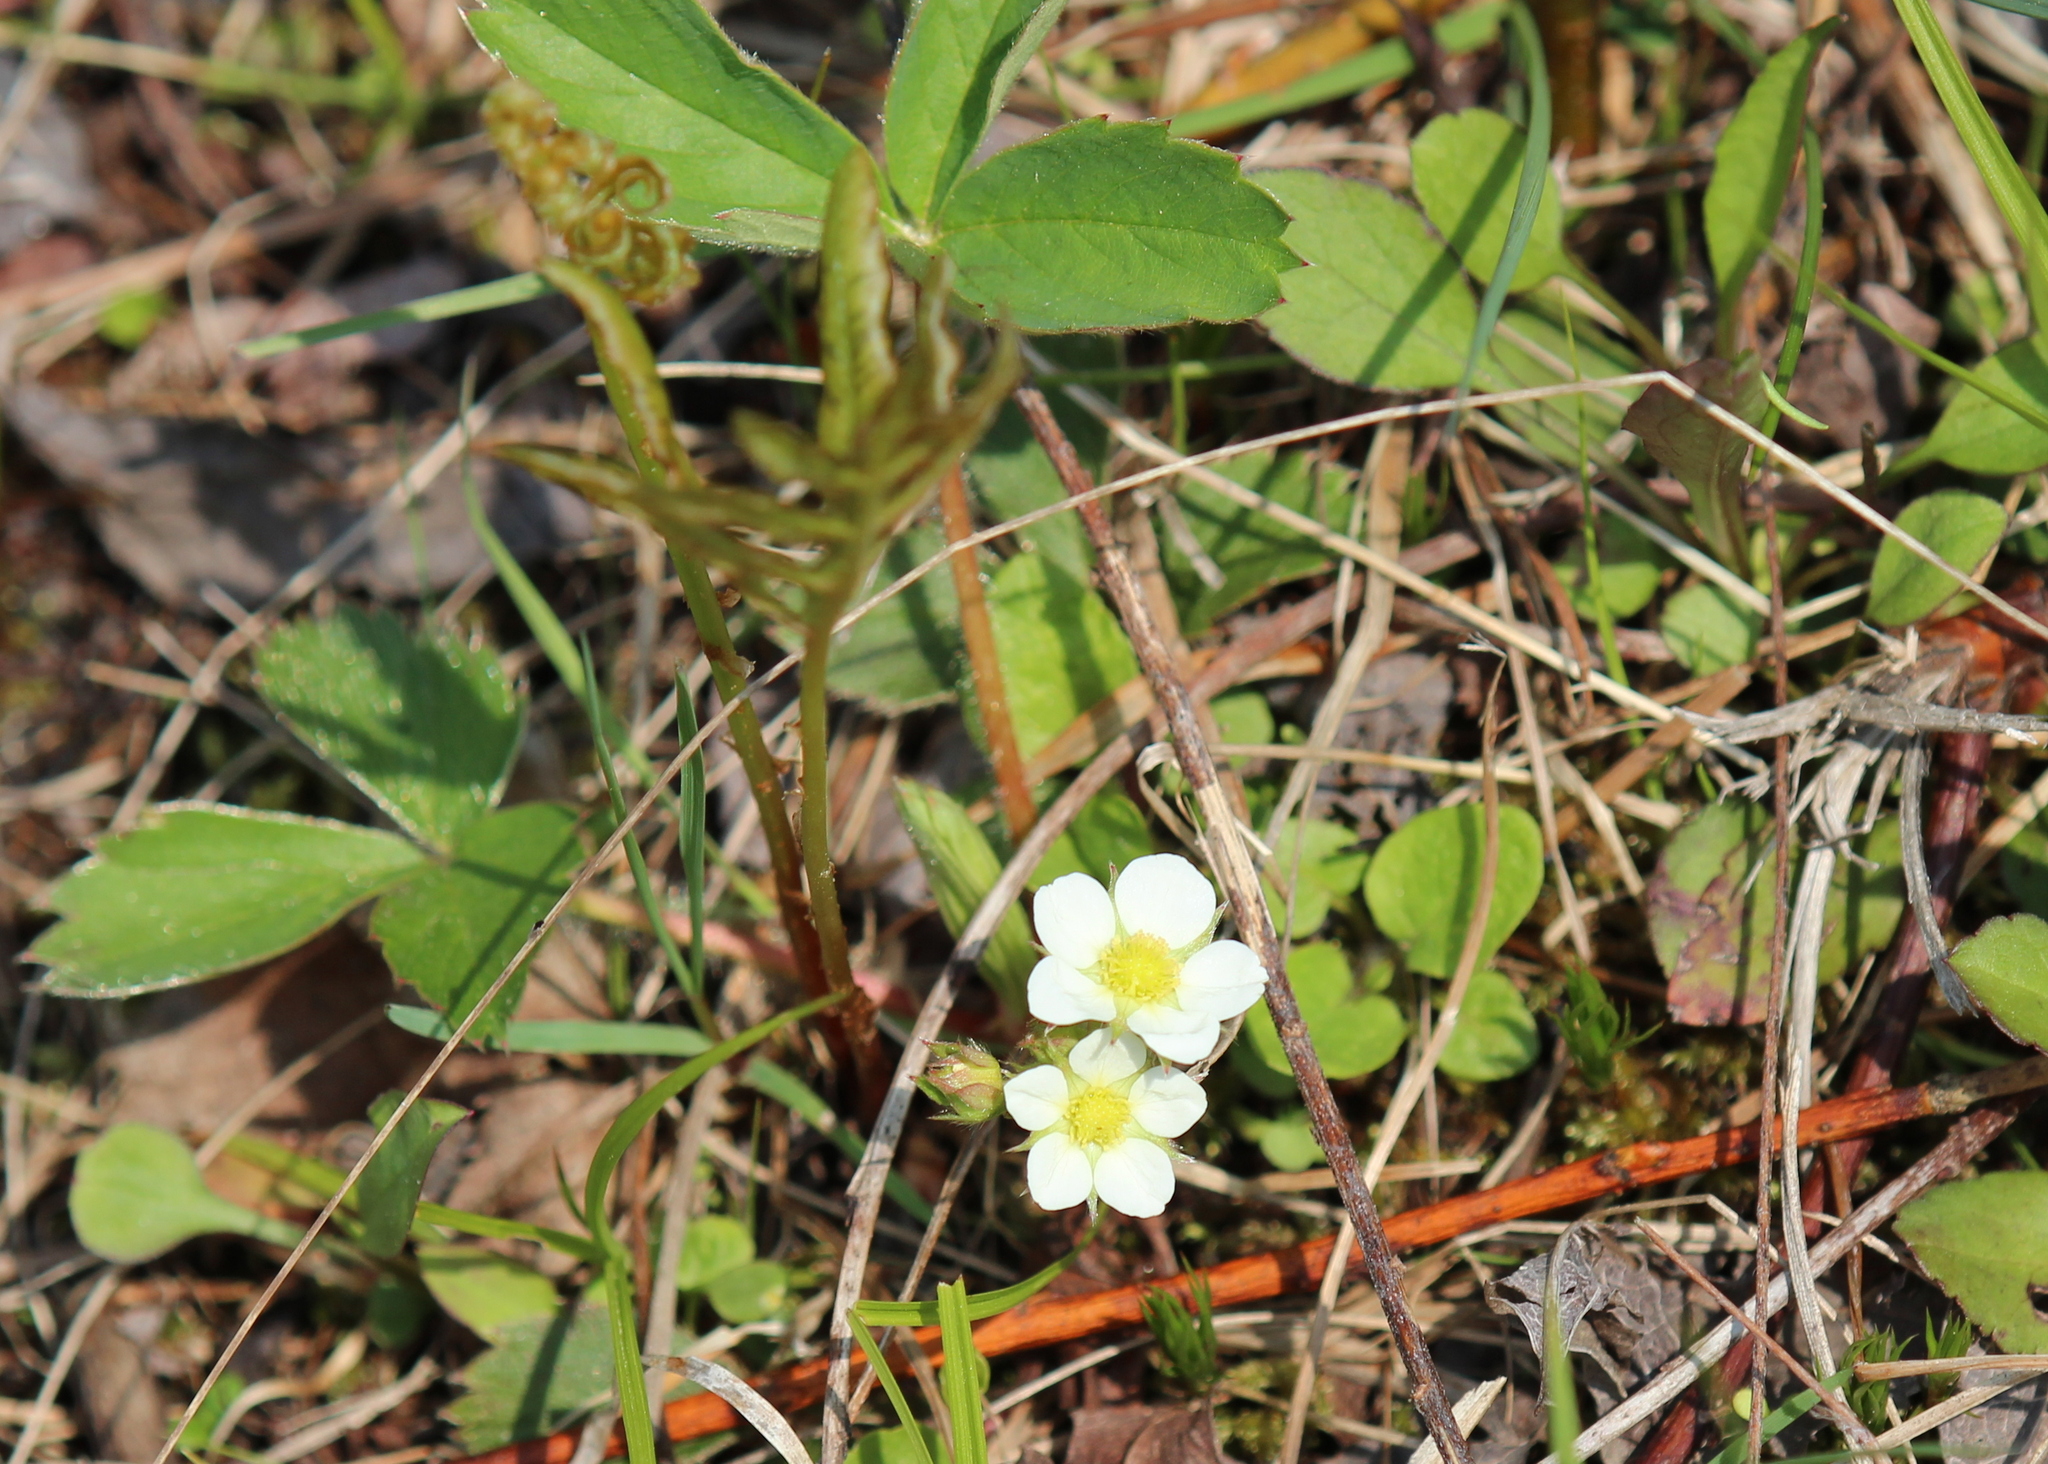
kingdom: Plantae
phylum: Tracheophyta
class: Magnoliopsida
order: Rosales
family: Rosaceae
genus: Fragaria
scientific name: Fragaria virginiana
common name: Thickleaved wild strawberry
